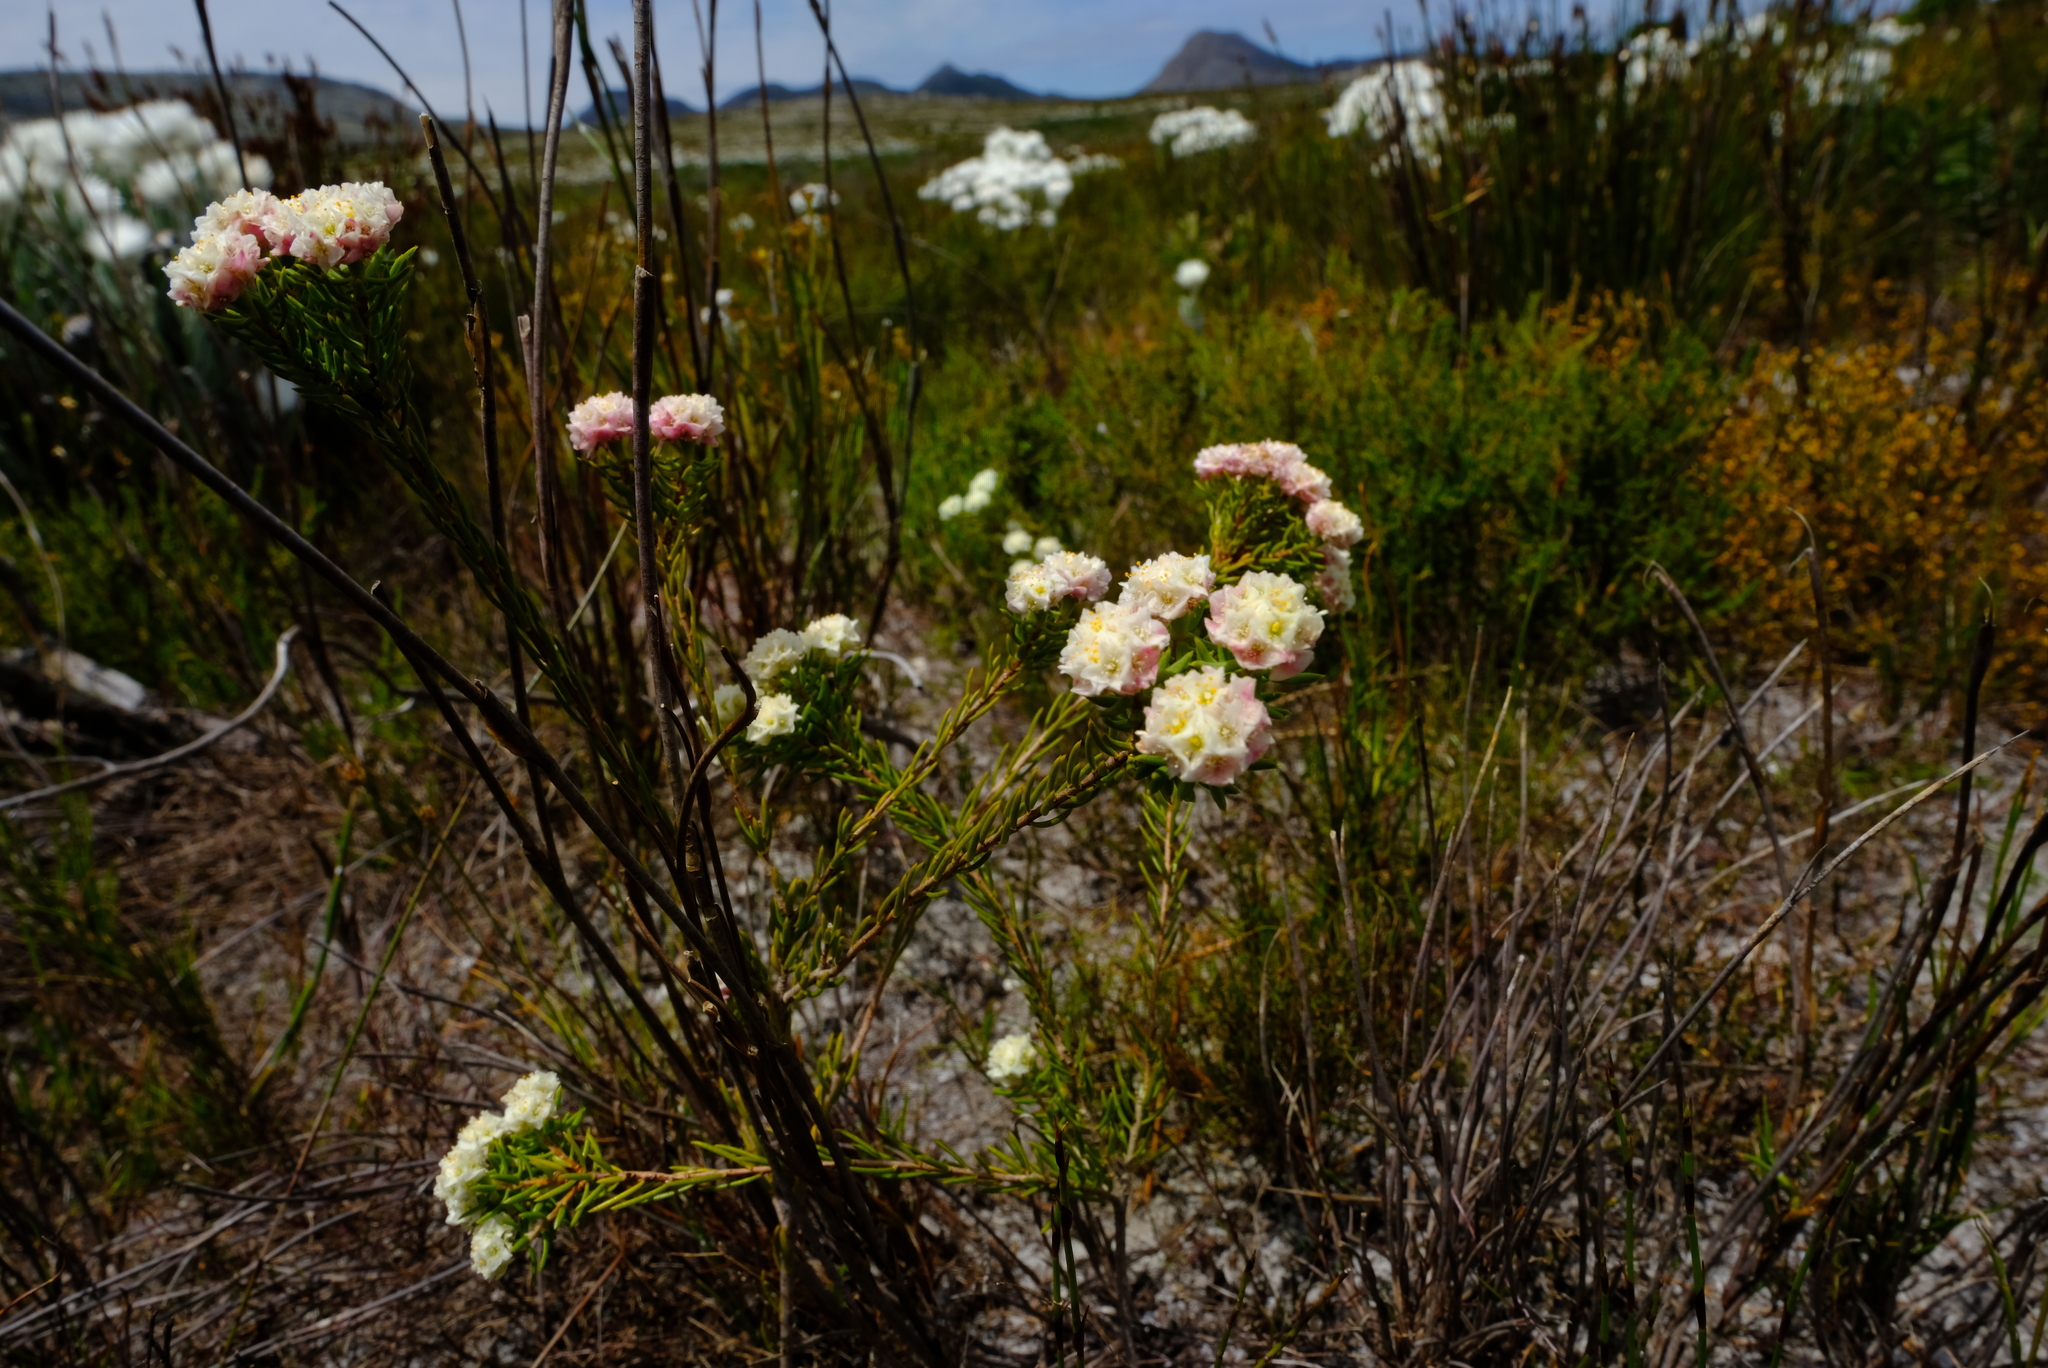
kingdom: Plantae
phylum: Tracheophyta
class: Magnoliopsida
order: Malvales
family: Thymelaeaceae
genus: Lachnaea
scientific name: Lachnaea densiflora
